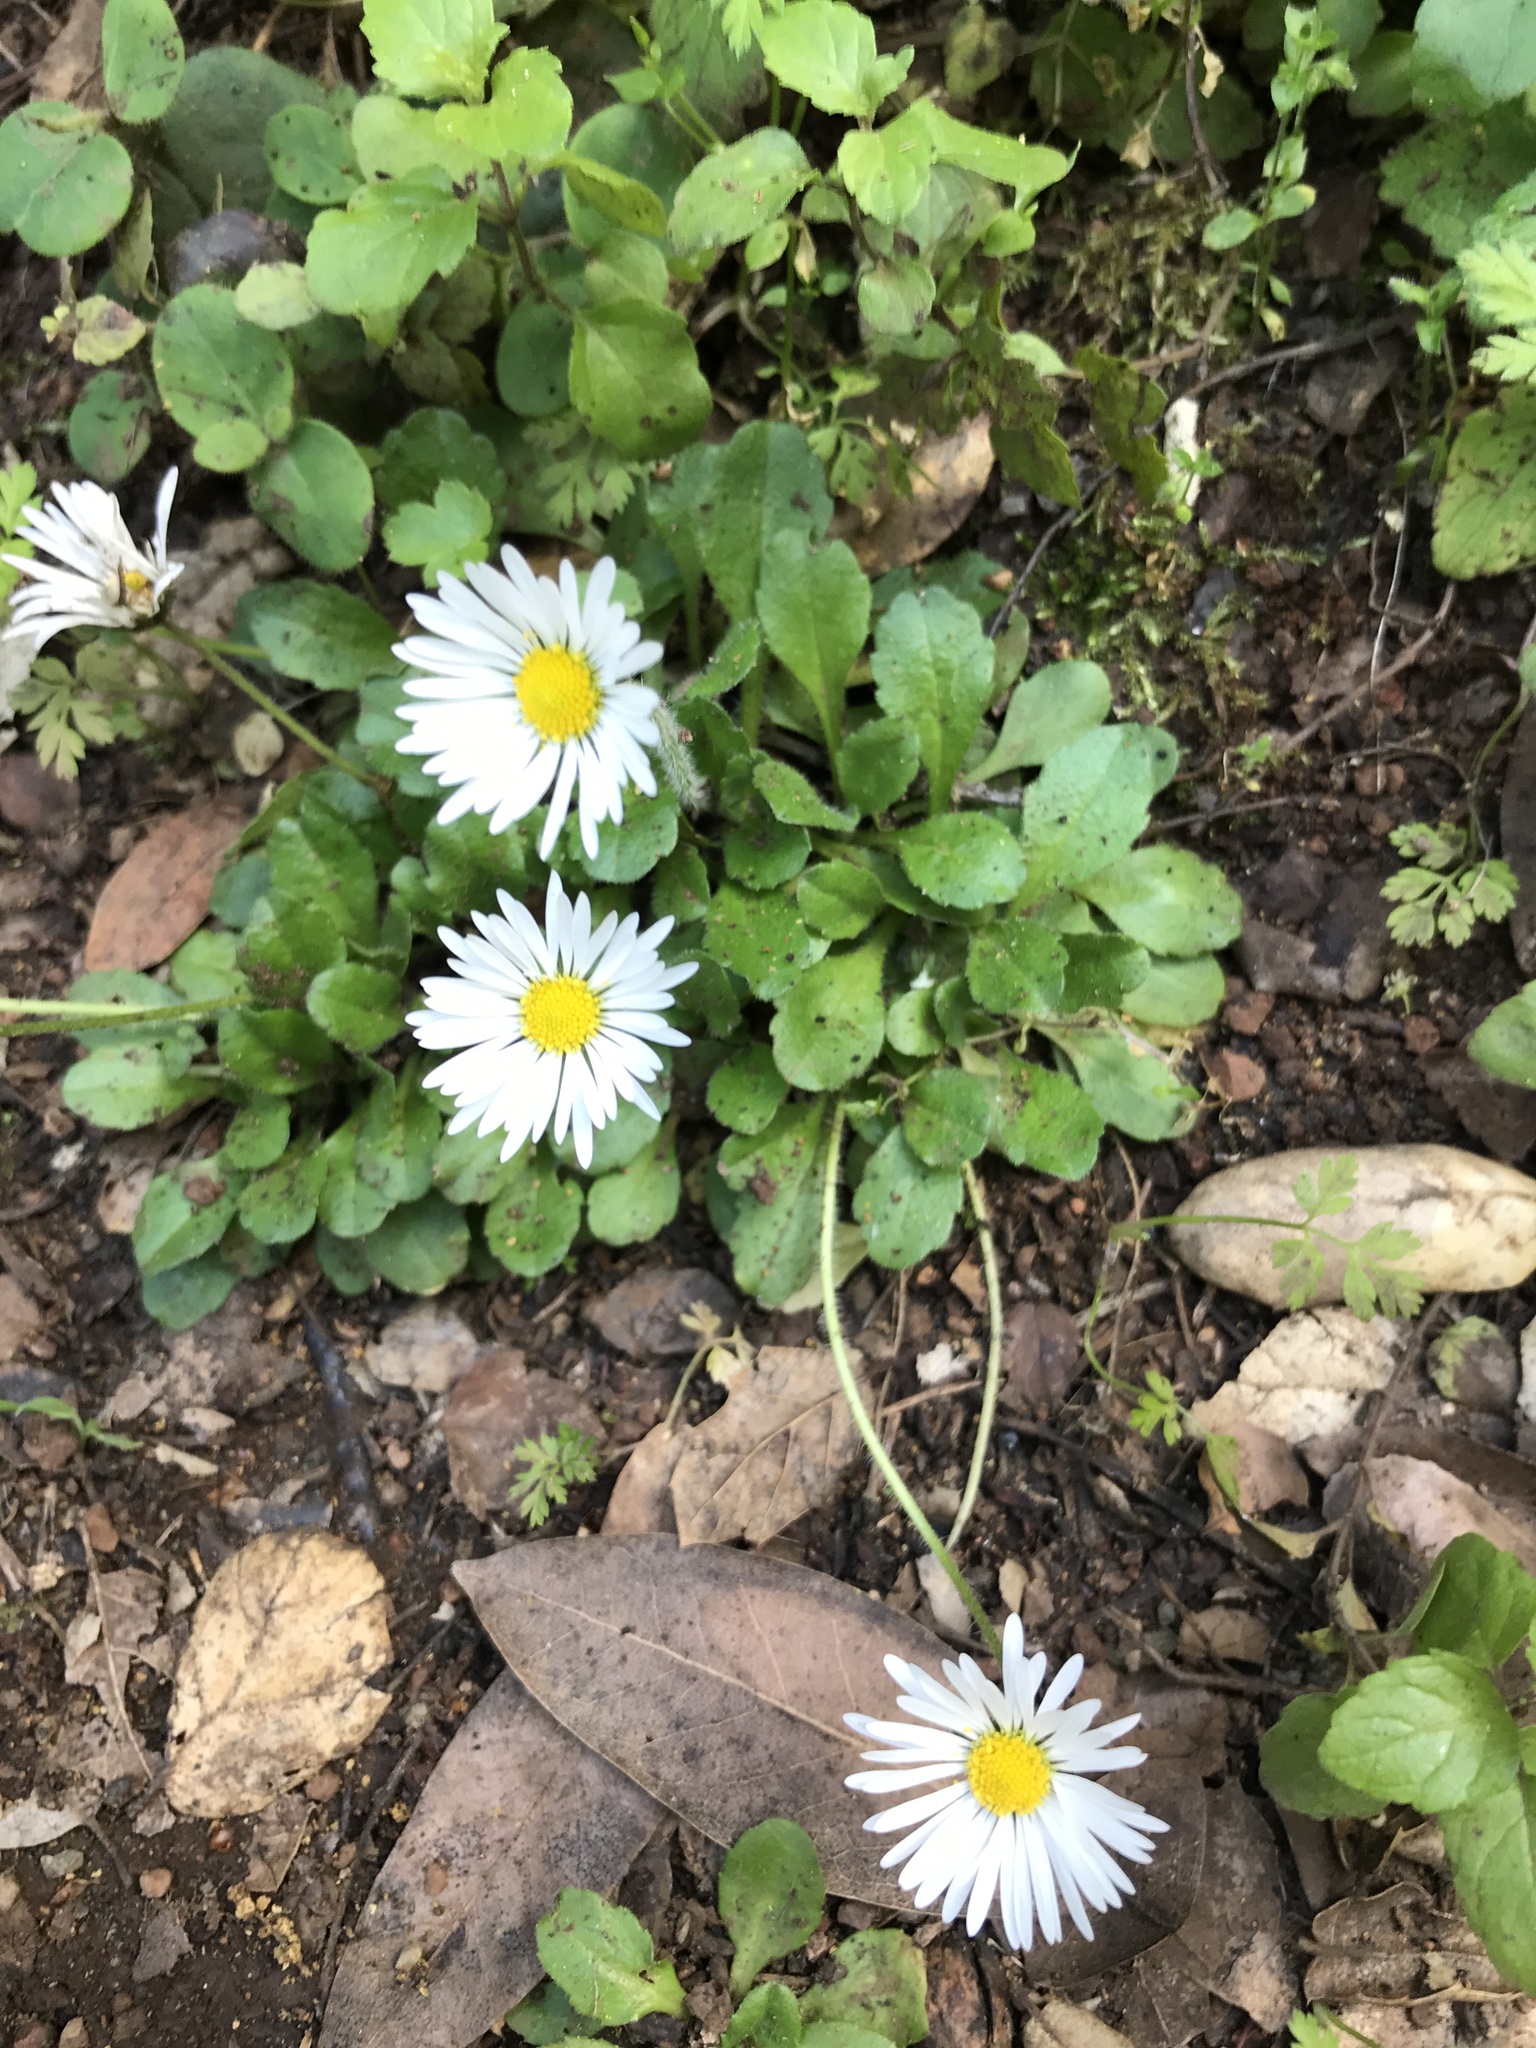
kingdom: Plantae
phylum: Tracheophyta
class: Magnoliopsida
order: Asterales
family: Asteraceae
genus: Bellis
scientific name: Bellis perennis
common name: Lawndaisy
